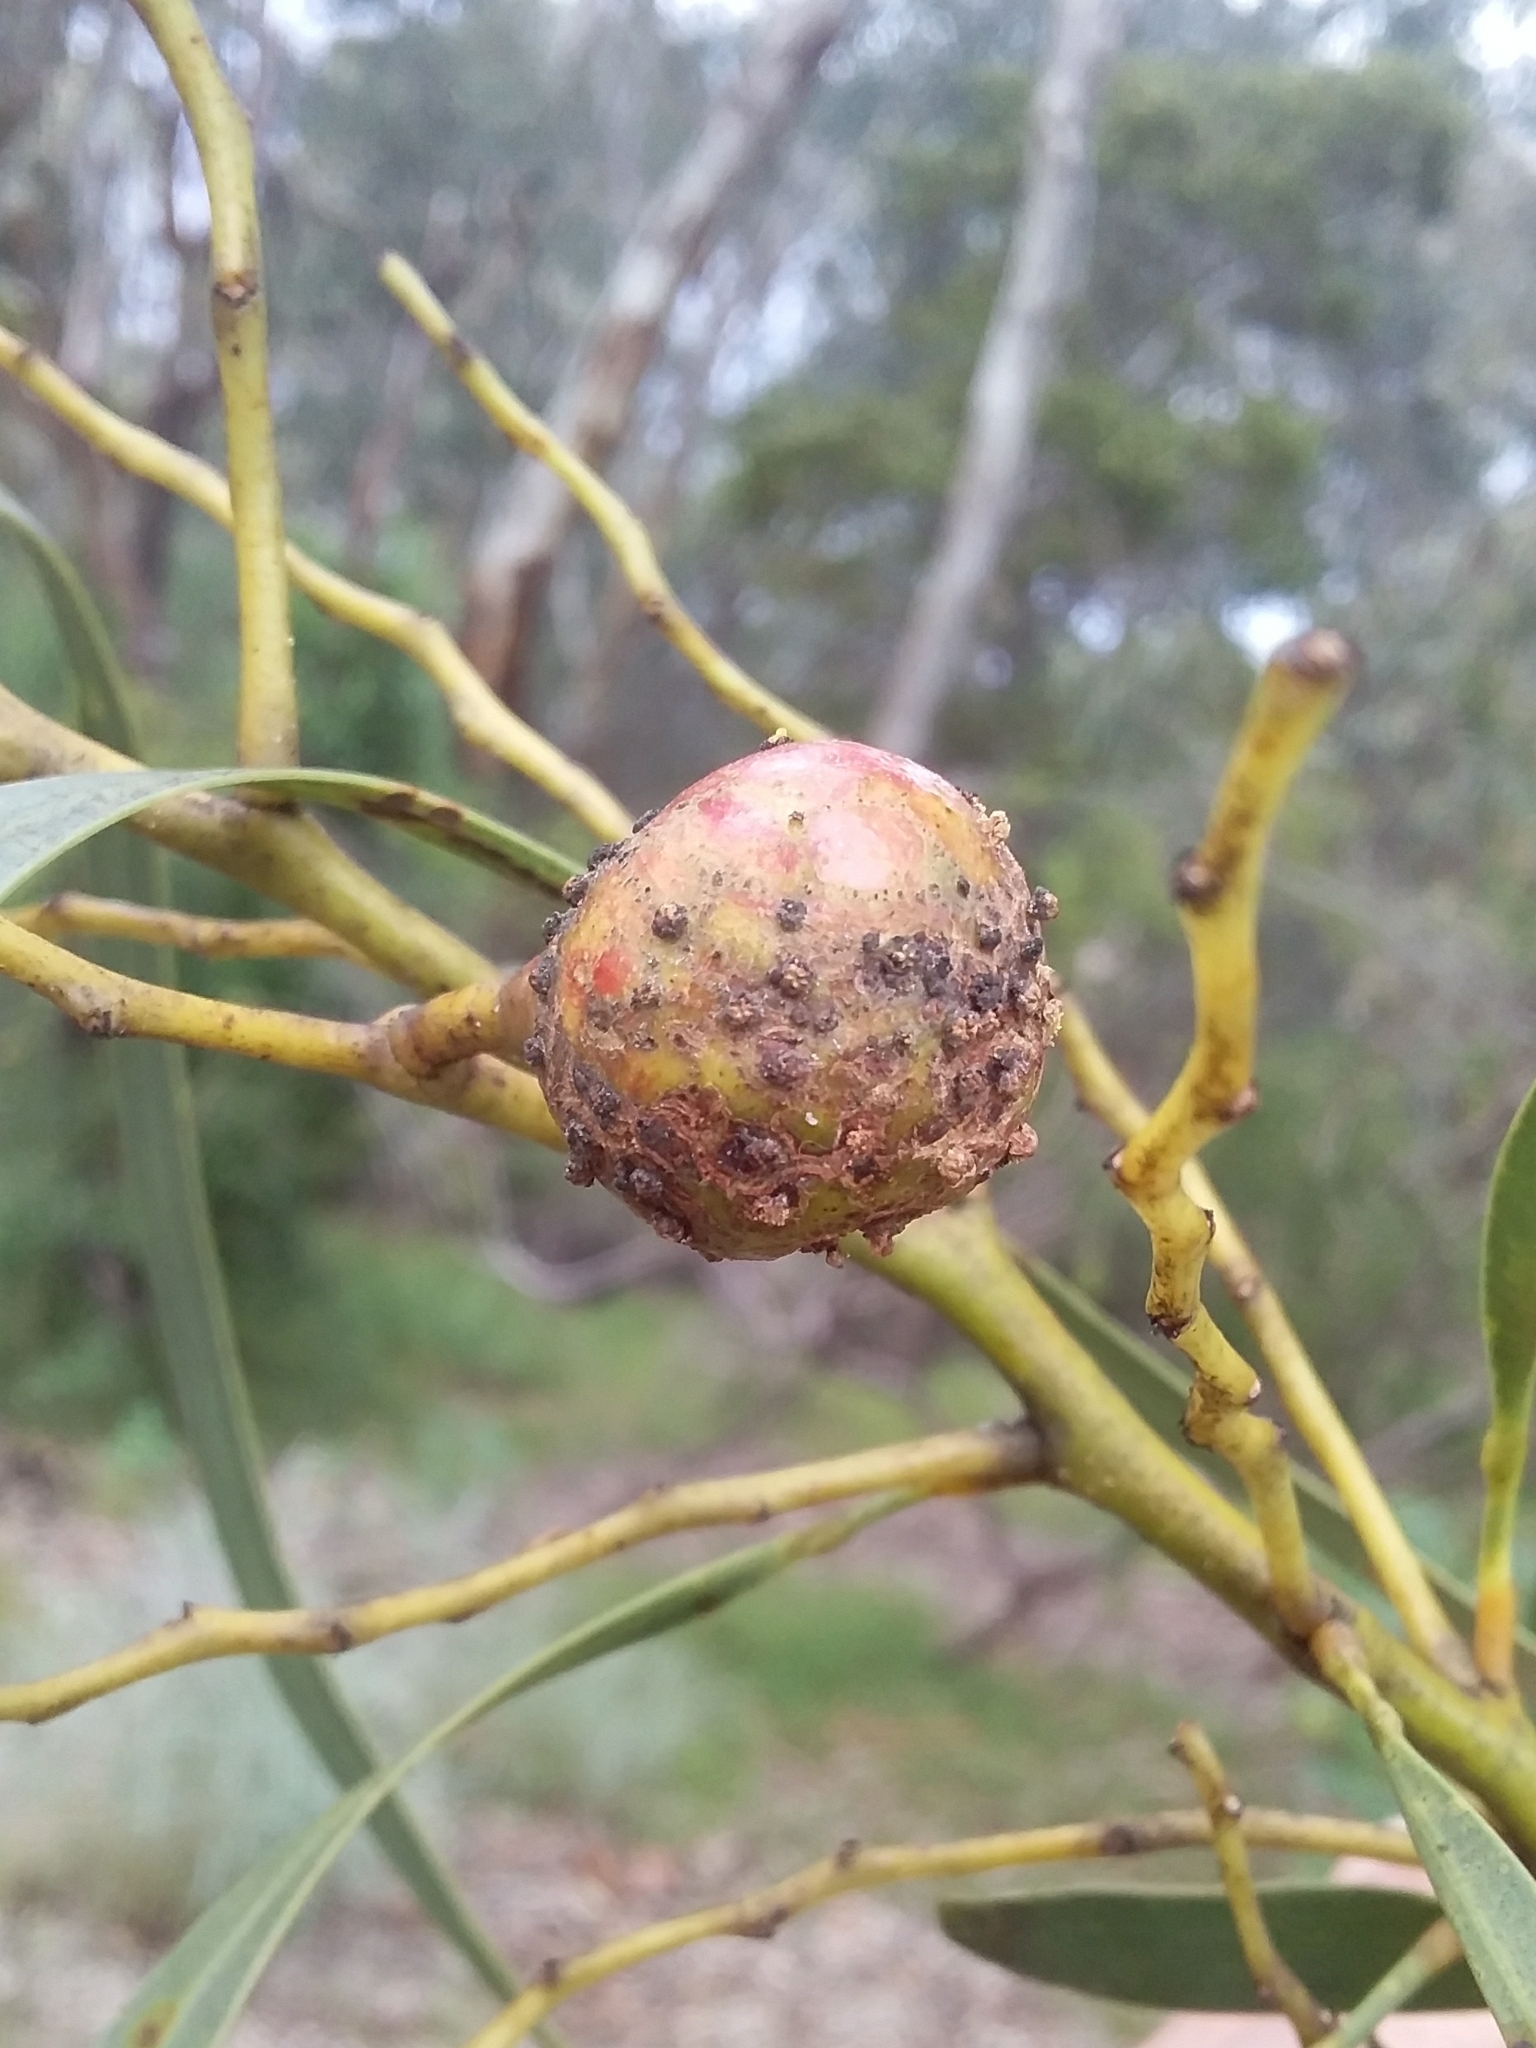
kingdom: Animalia
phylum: Arthropoda
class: Insecta
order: Hymenoptera
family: Pteromalidae
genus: Trichilogaster
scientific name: Trichilogaster signiventris
